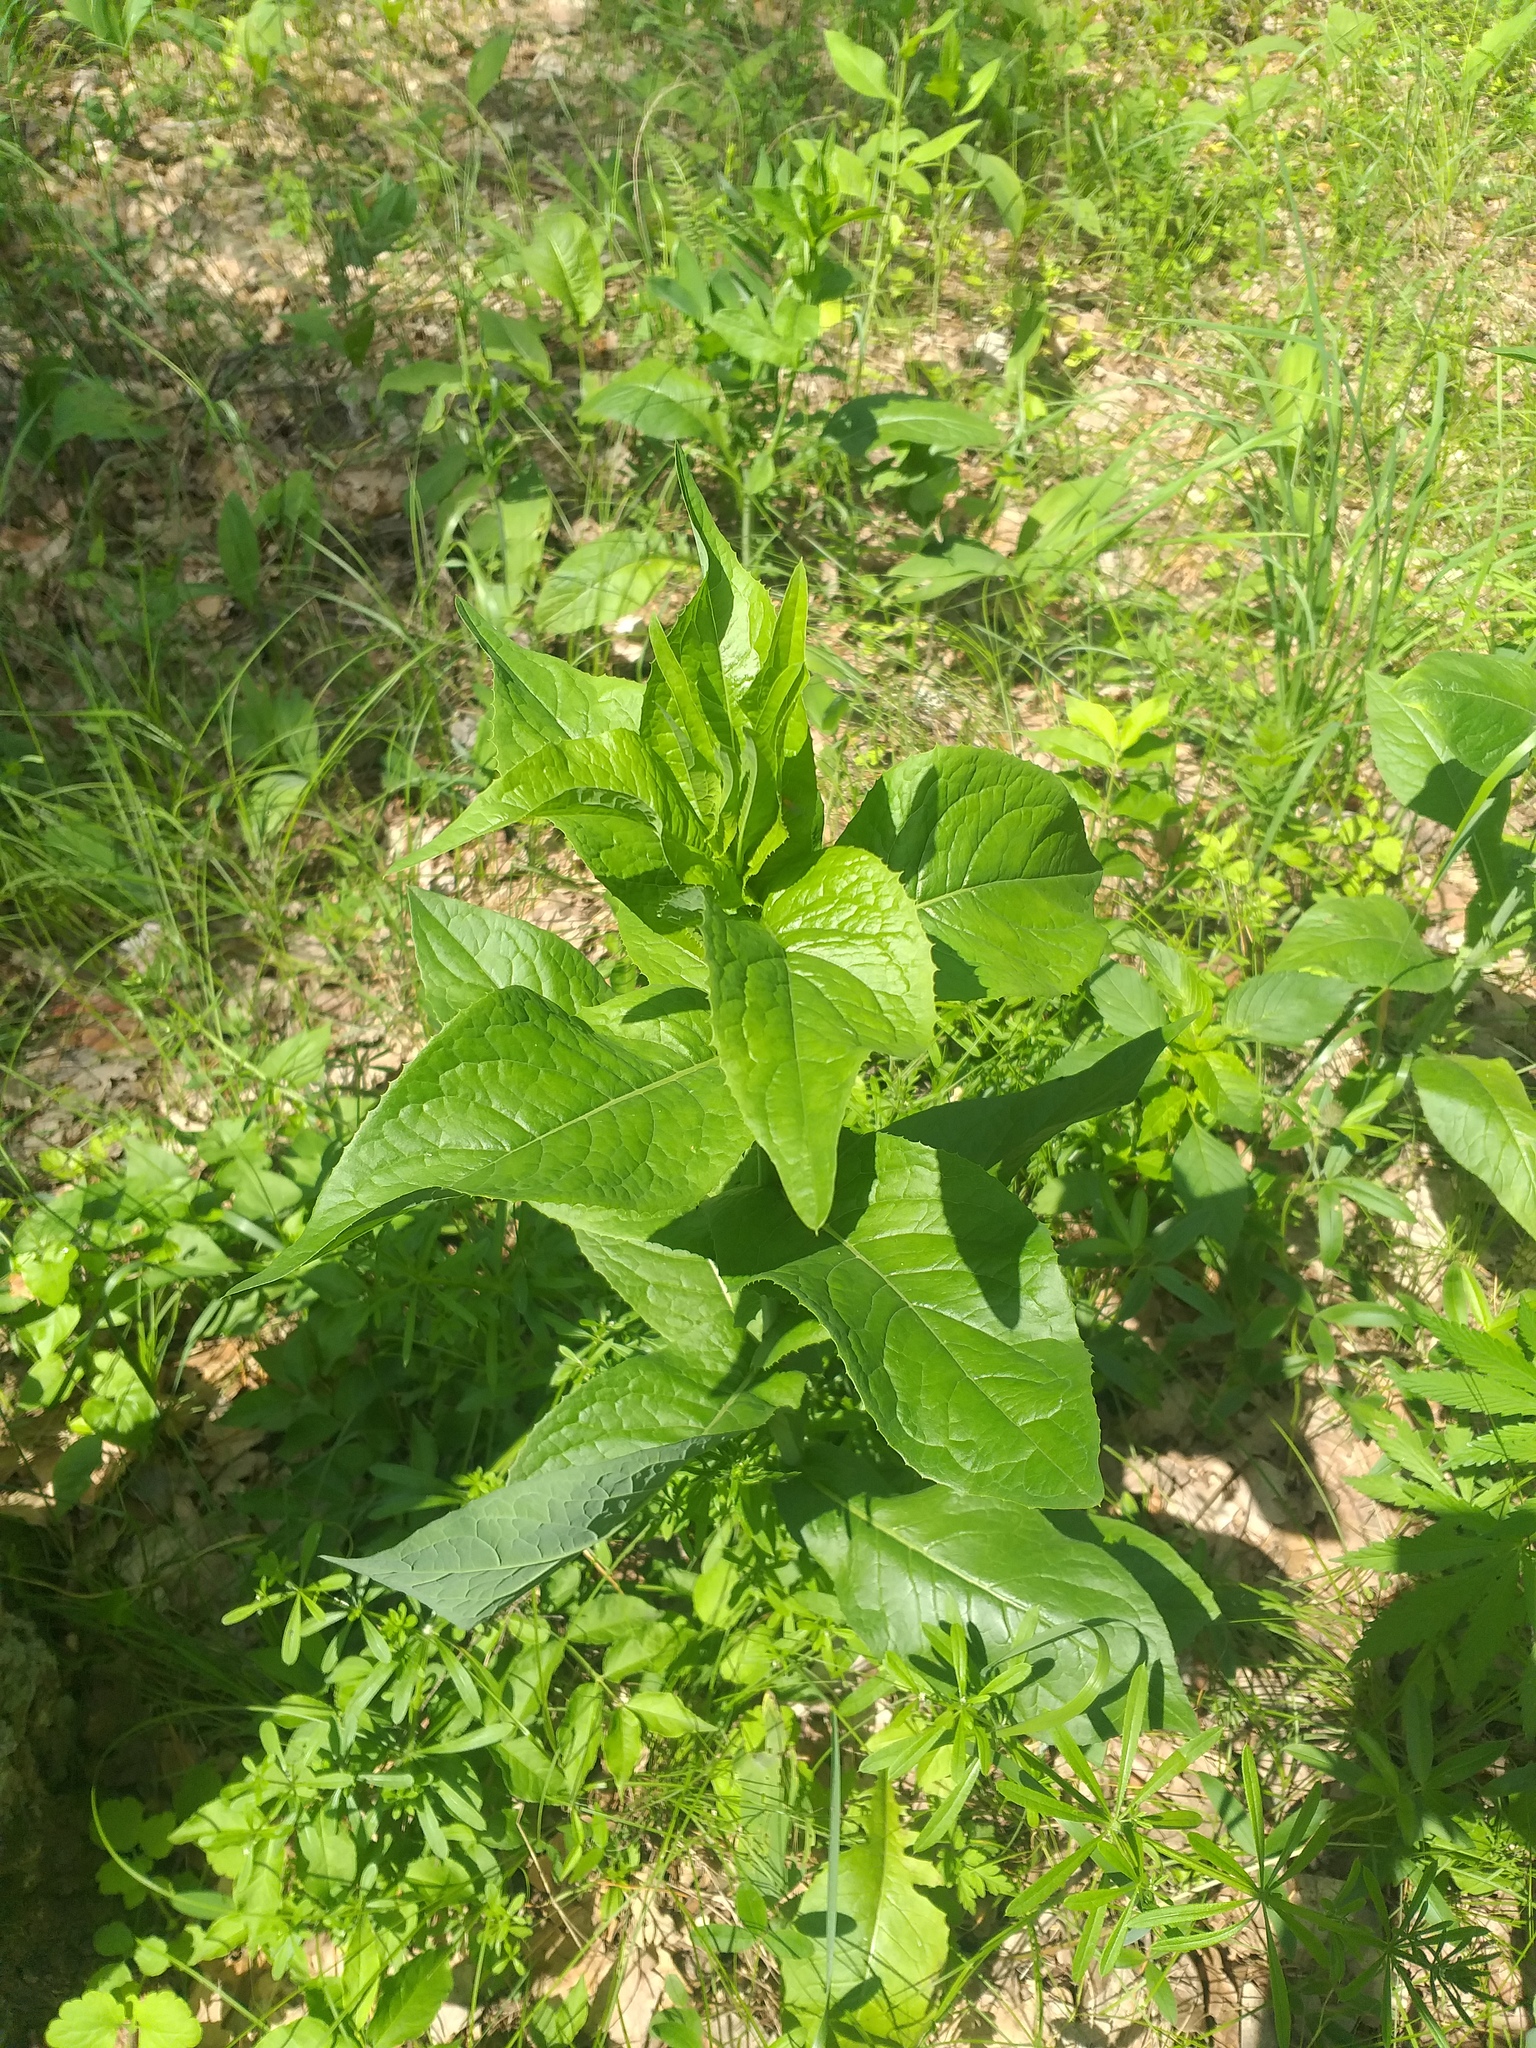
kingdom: Plantae
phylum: Tracheophyta
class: Magnoliopsida
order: Asterales
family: Asteraceae
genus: Lactuca
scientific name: Lactuca quercina
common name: Wild lettuce
